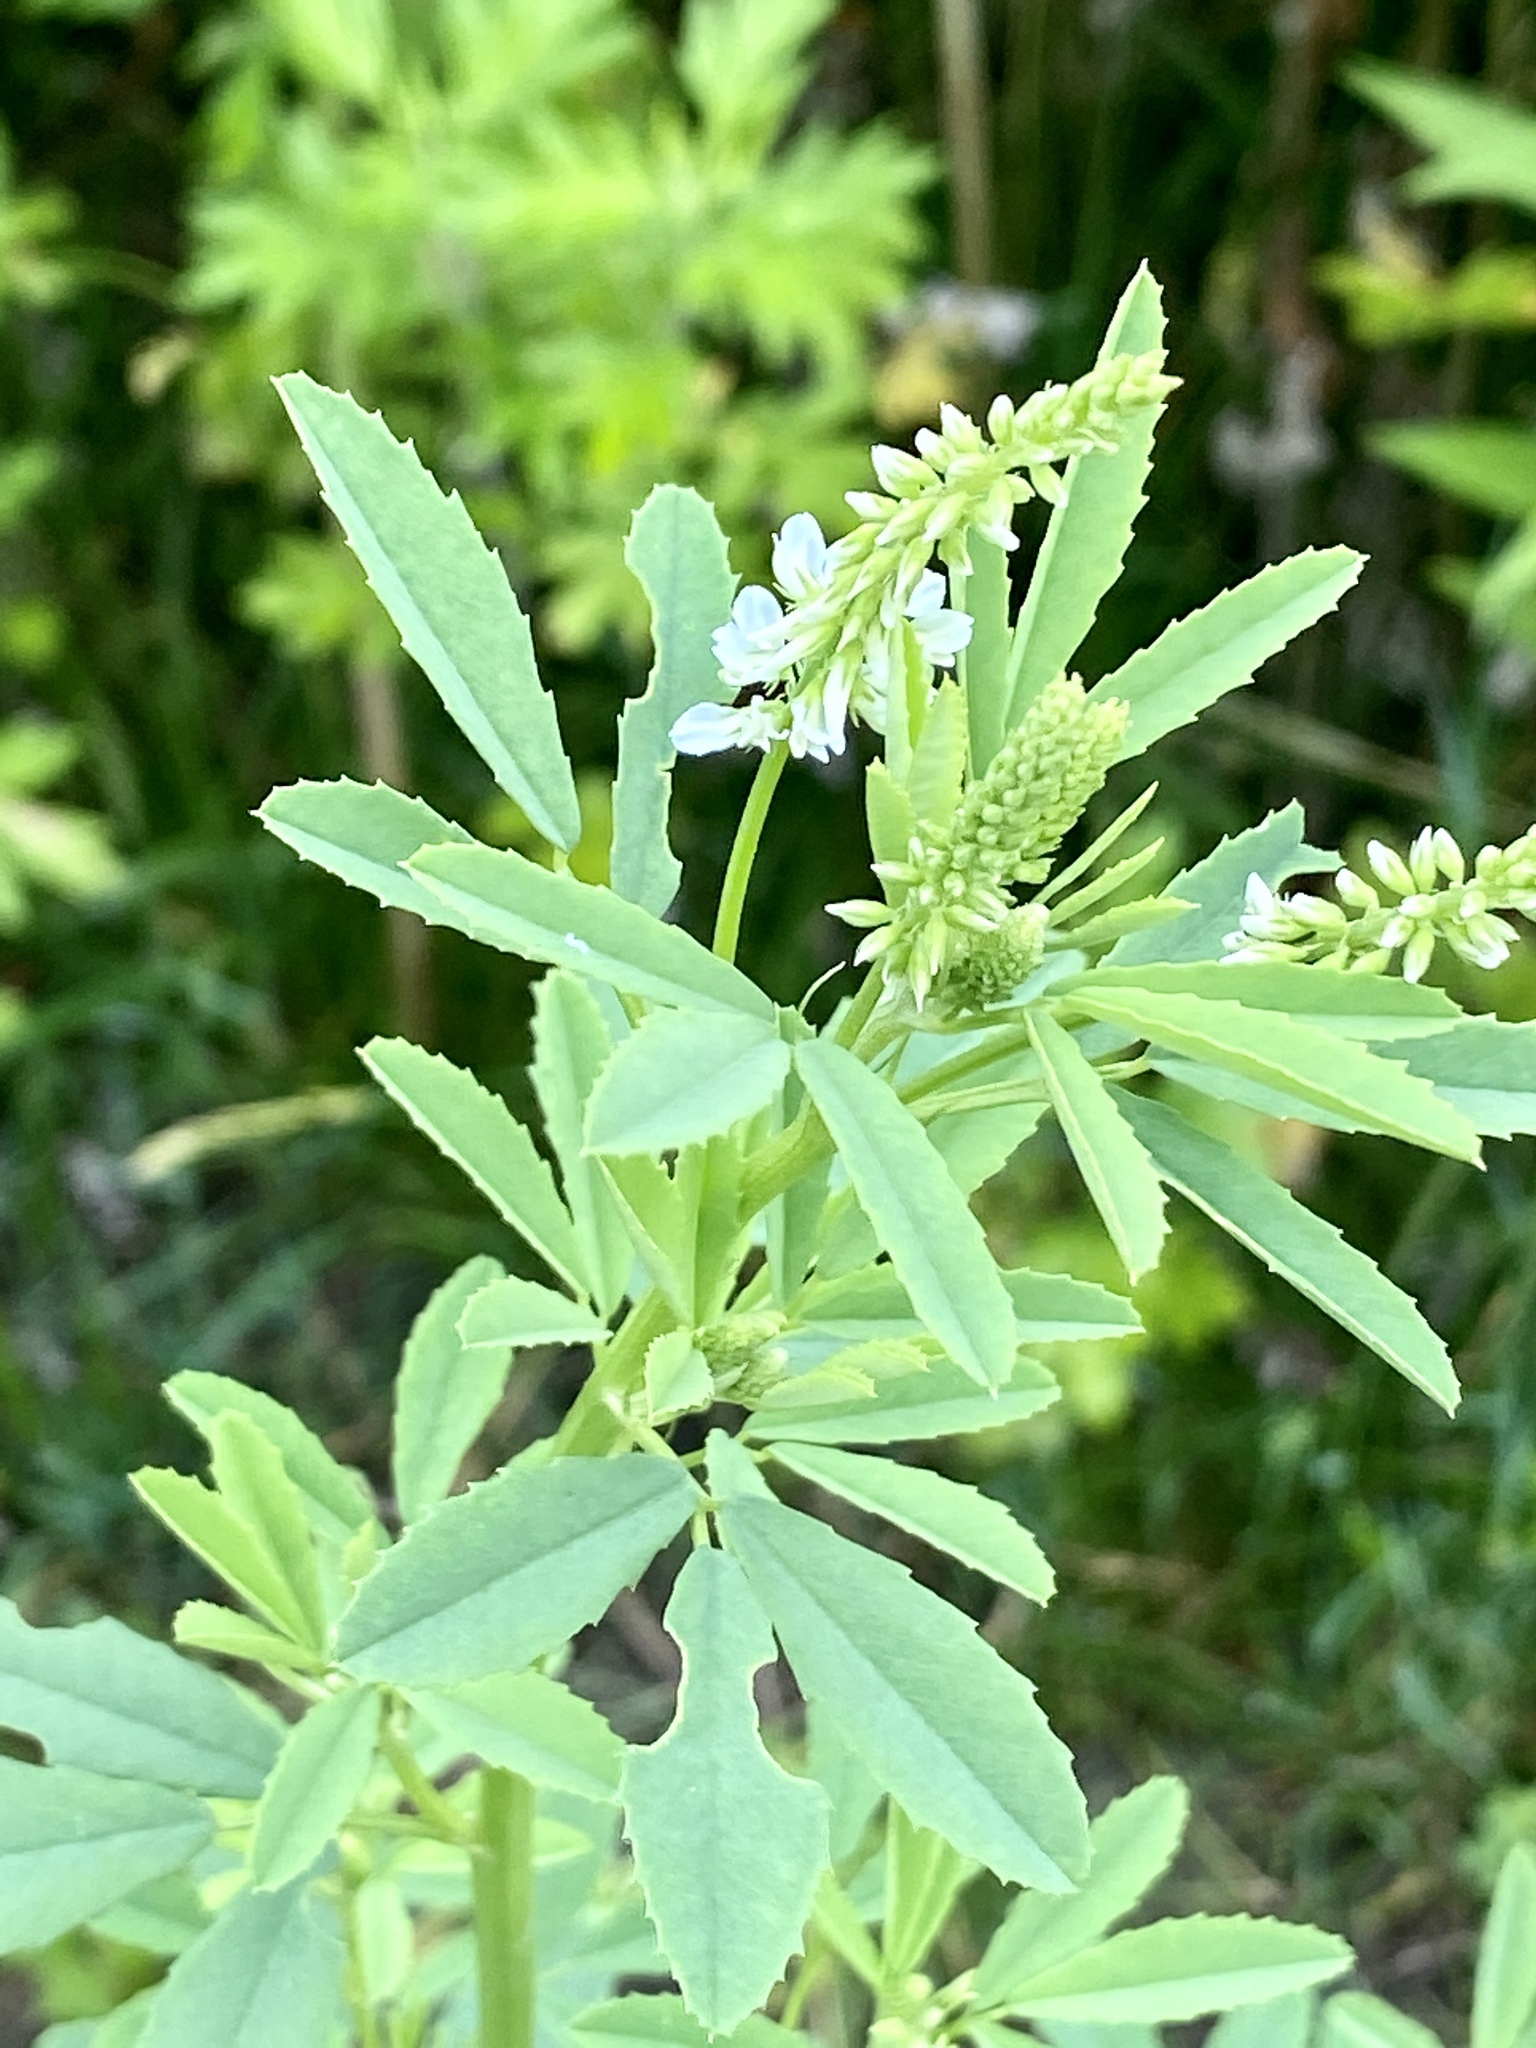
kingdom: Plantae
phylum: Tracheophyta
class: Magnoliopsida
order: Fabales
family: Fabaceae
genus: Melilotus
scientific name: Melilotus albus
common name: White melilot
